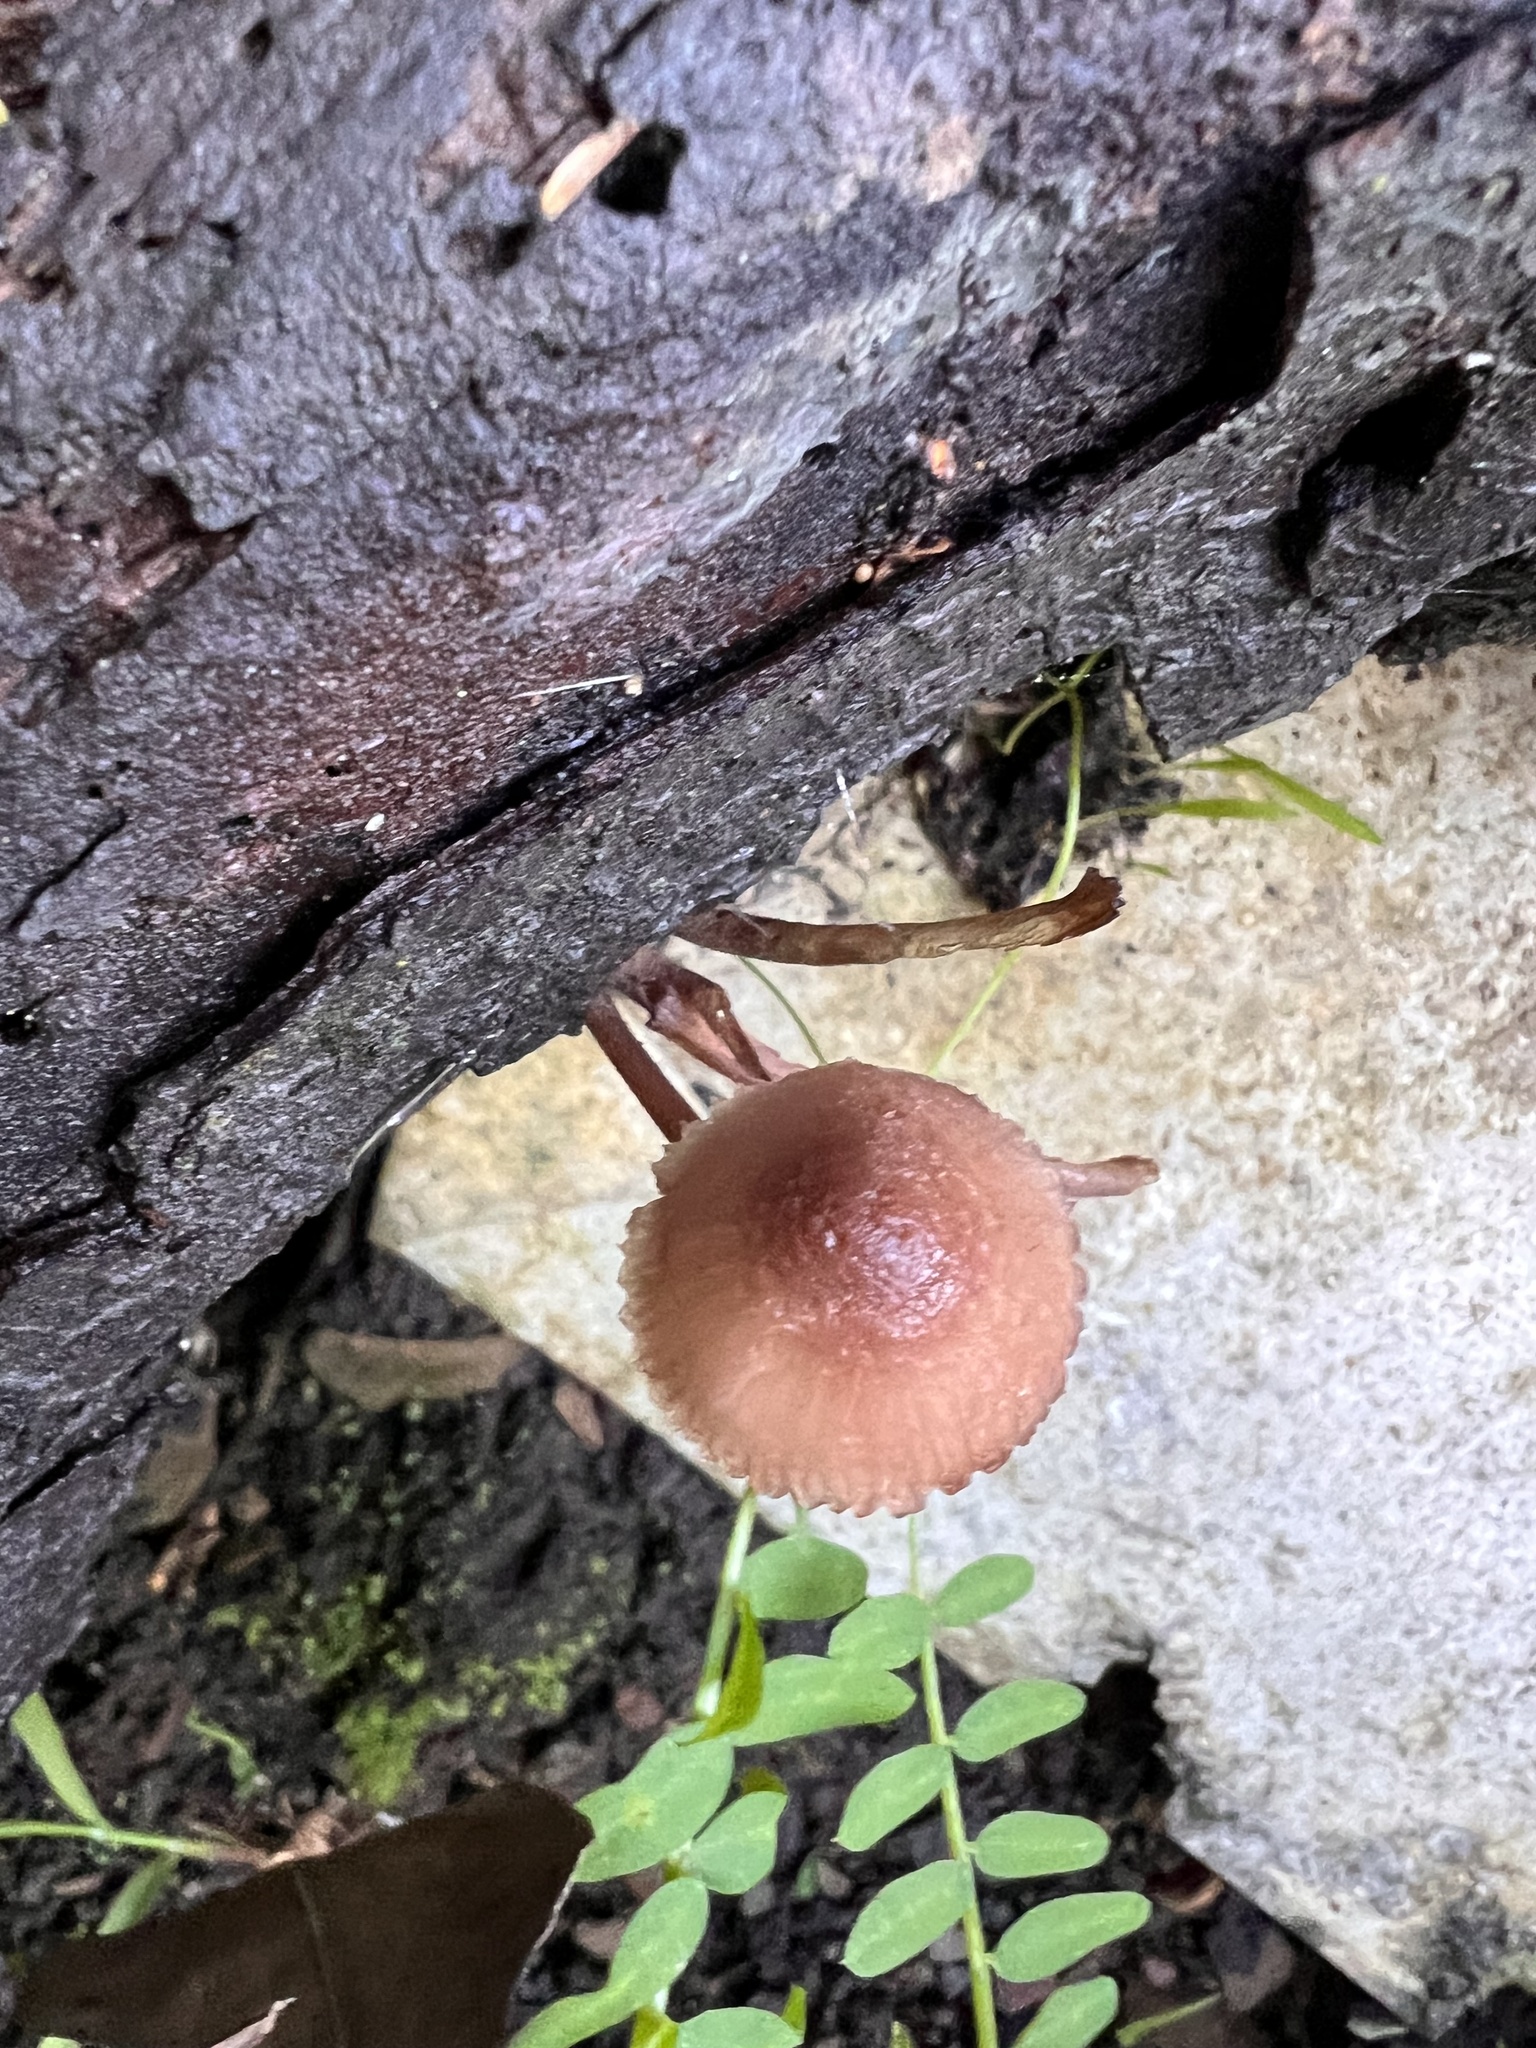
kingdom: Fungi
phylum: Basidiomycota
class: Agaricomycetes
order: Agaricales
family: Mycenaceae
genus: Mycena
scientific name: Mycena haematopus
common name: Burgundydrop bonnet
